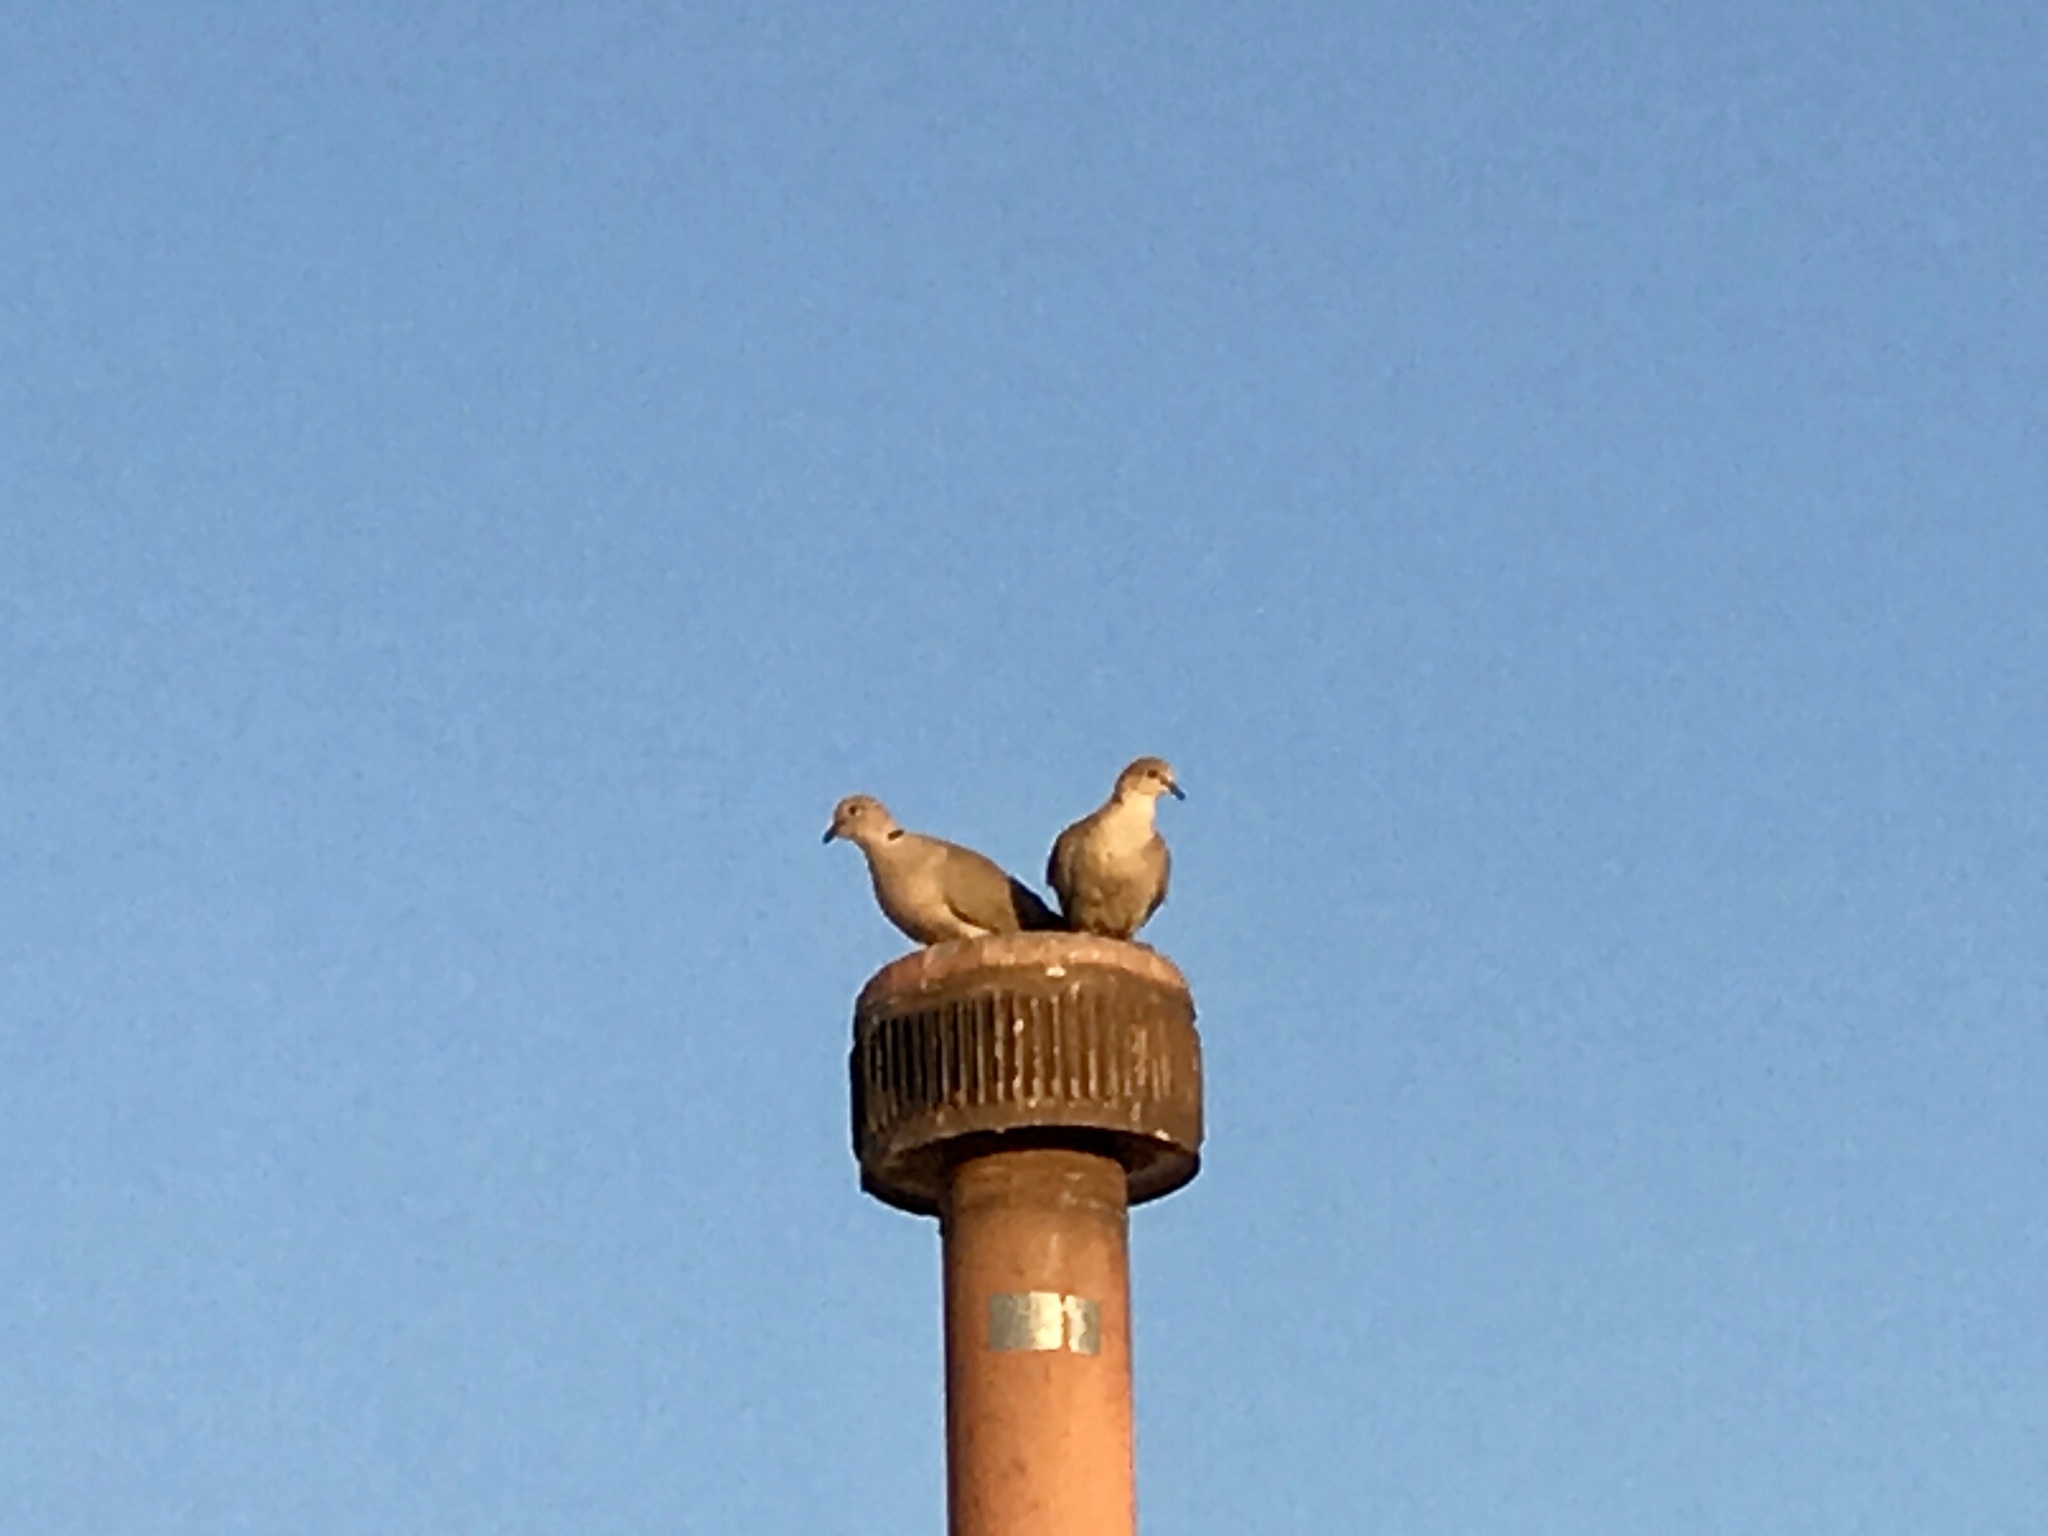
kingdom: Animalia
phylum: Chordata
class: Aves
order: Columbiformes
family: Columbidae
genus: Streptopelia
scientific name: Streptopelia decaocto
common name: Eurasian collared dove
